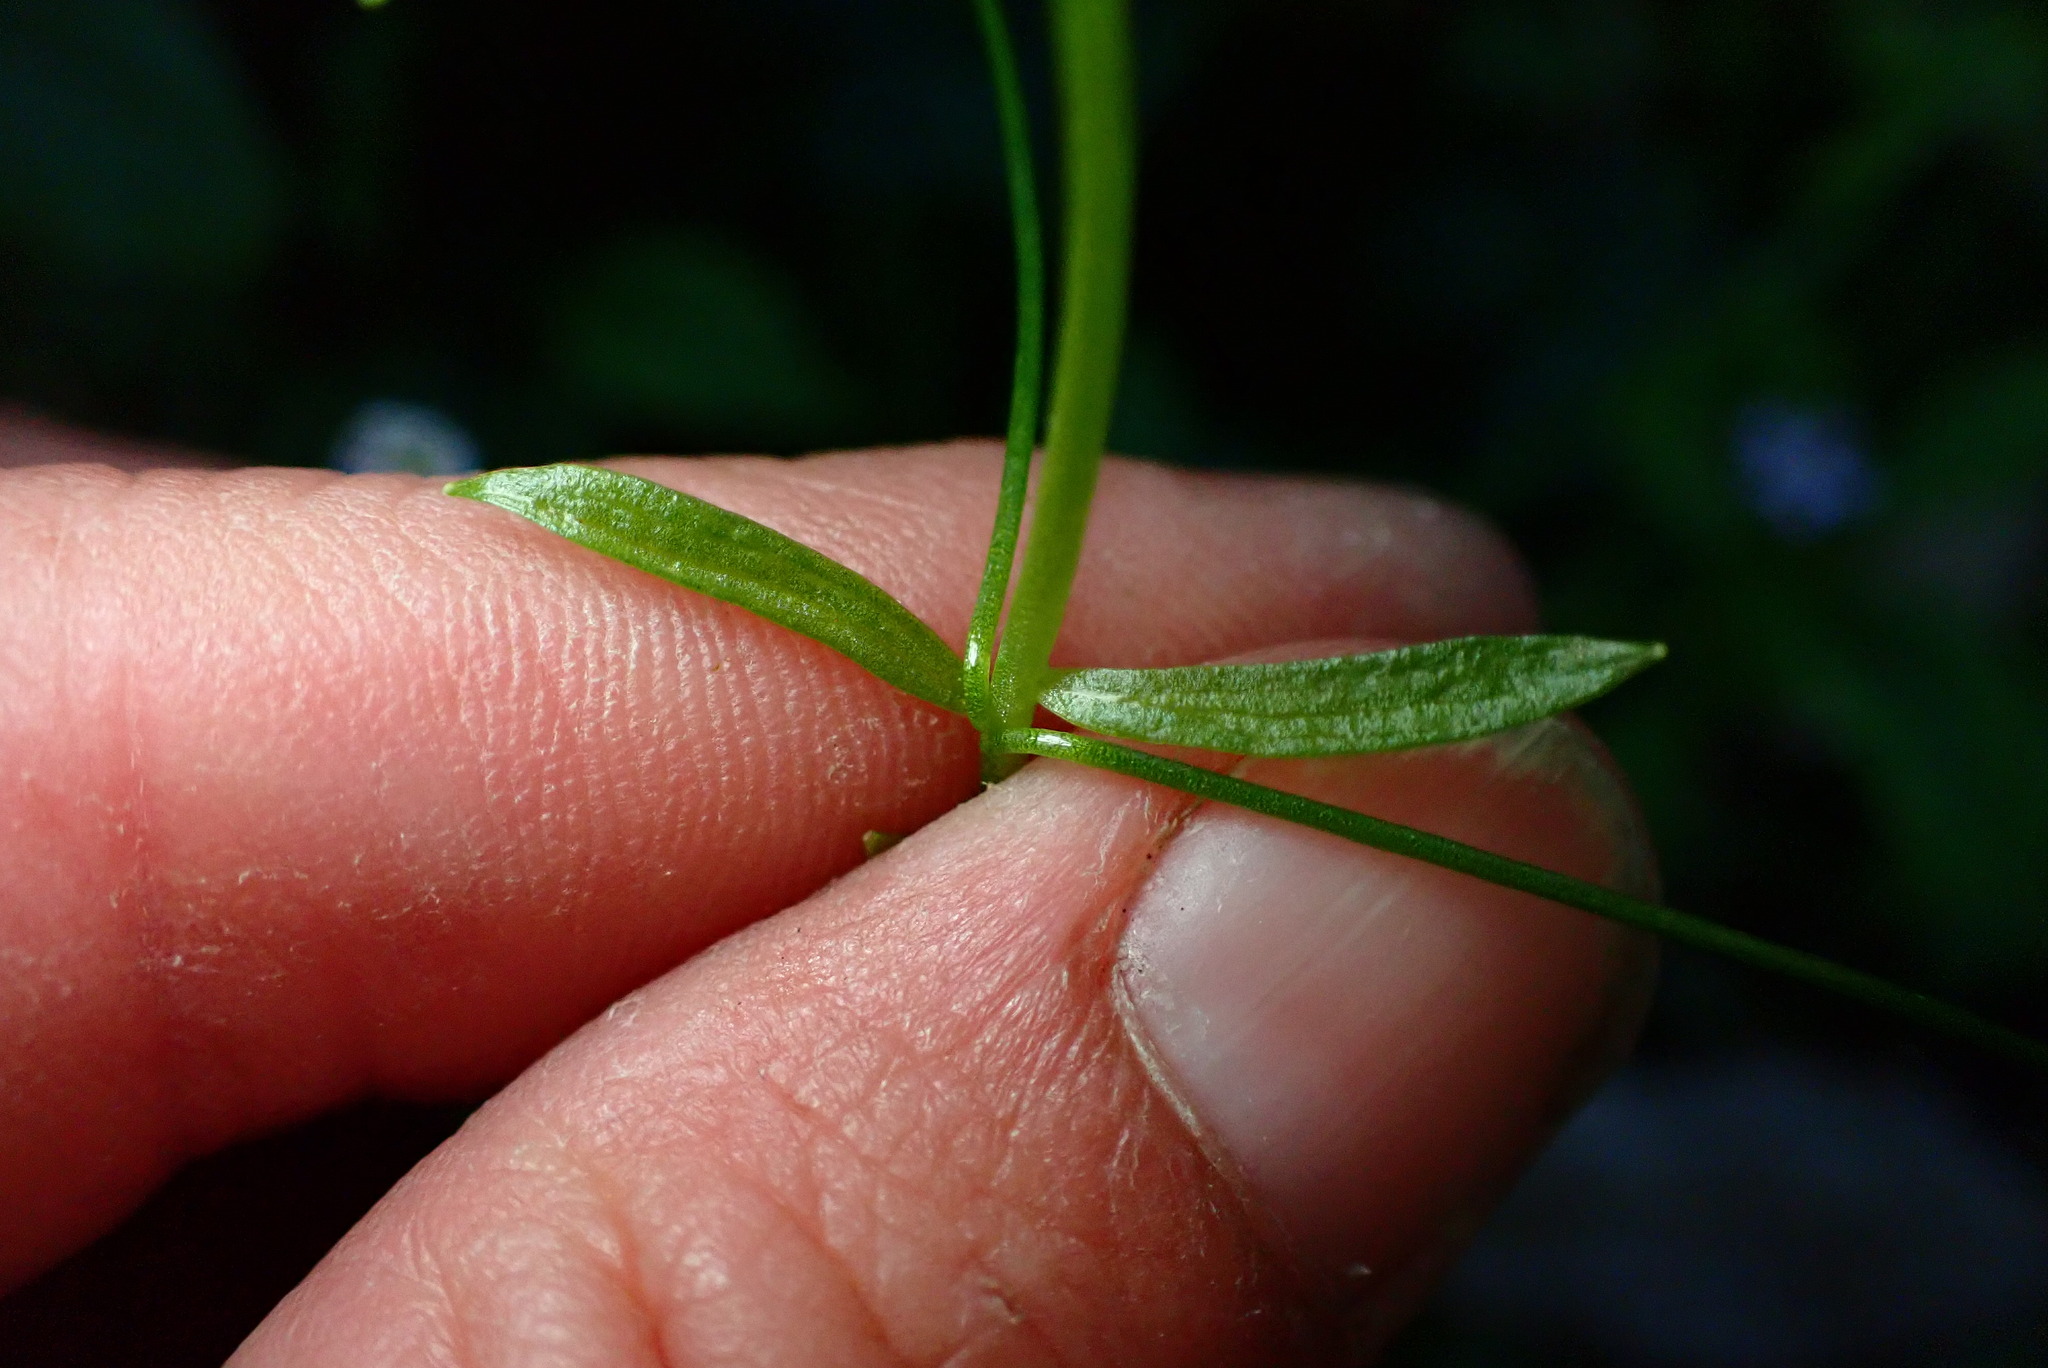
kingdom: Plantae
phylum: Tracheophyta
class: Magnoliopsida
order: Caryophyllales
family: Montiaceae
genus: Claytonia
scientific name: Claytonia sibirica
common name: Pink purslane
